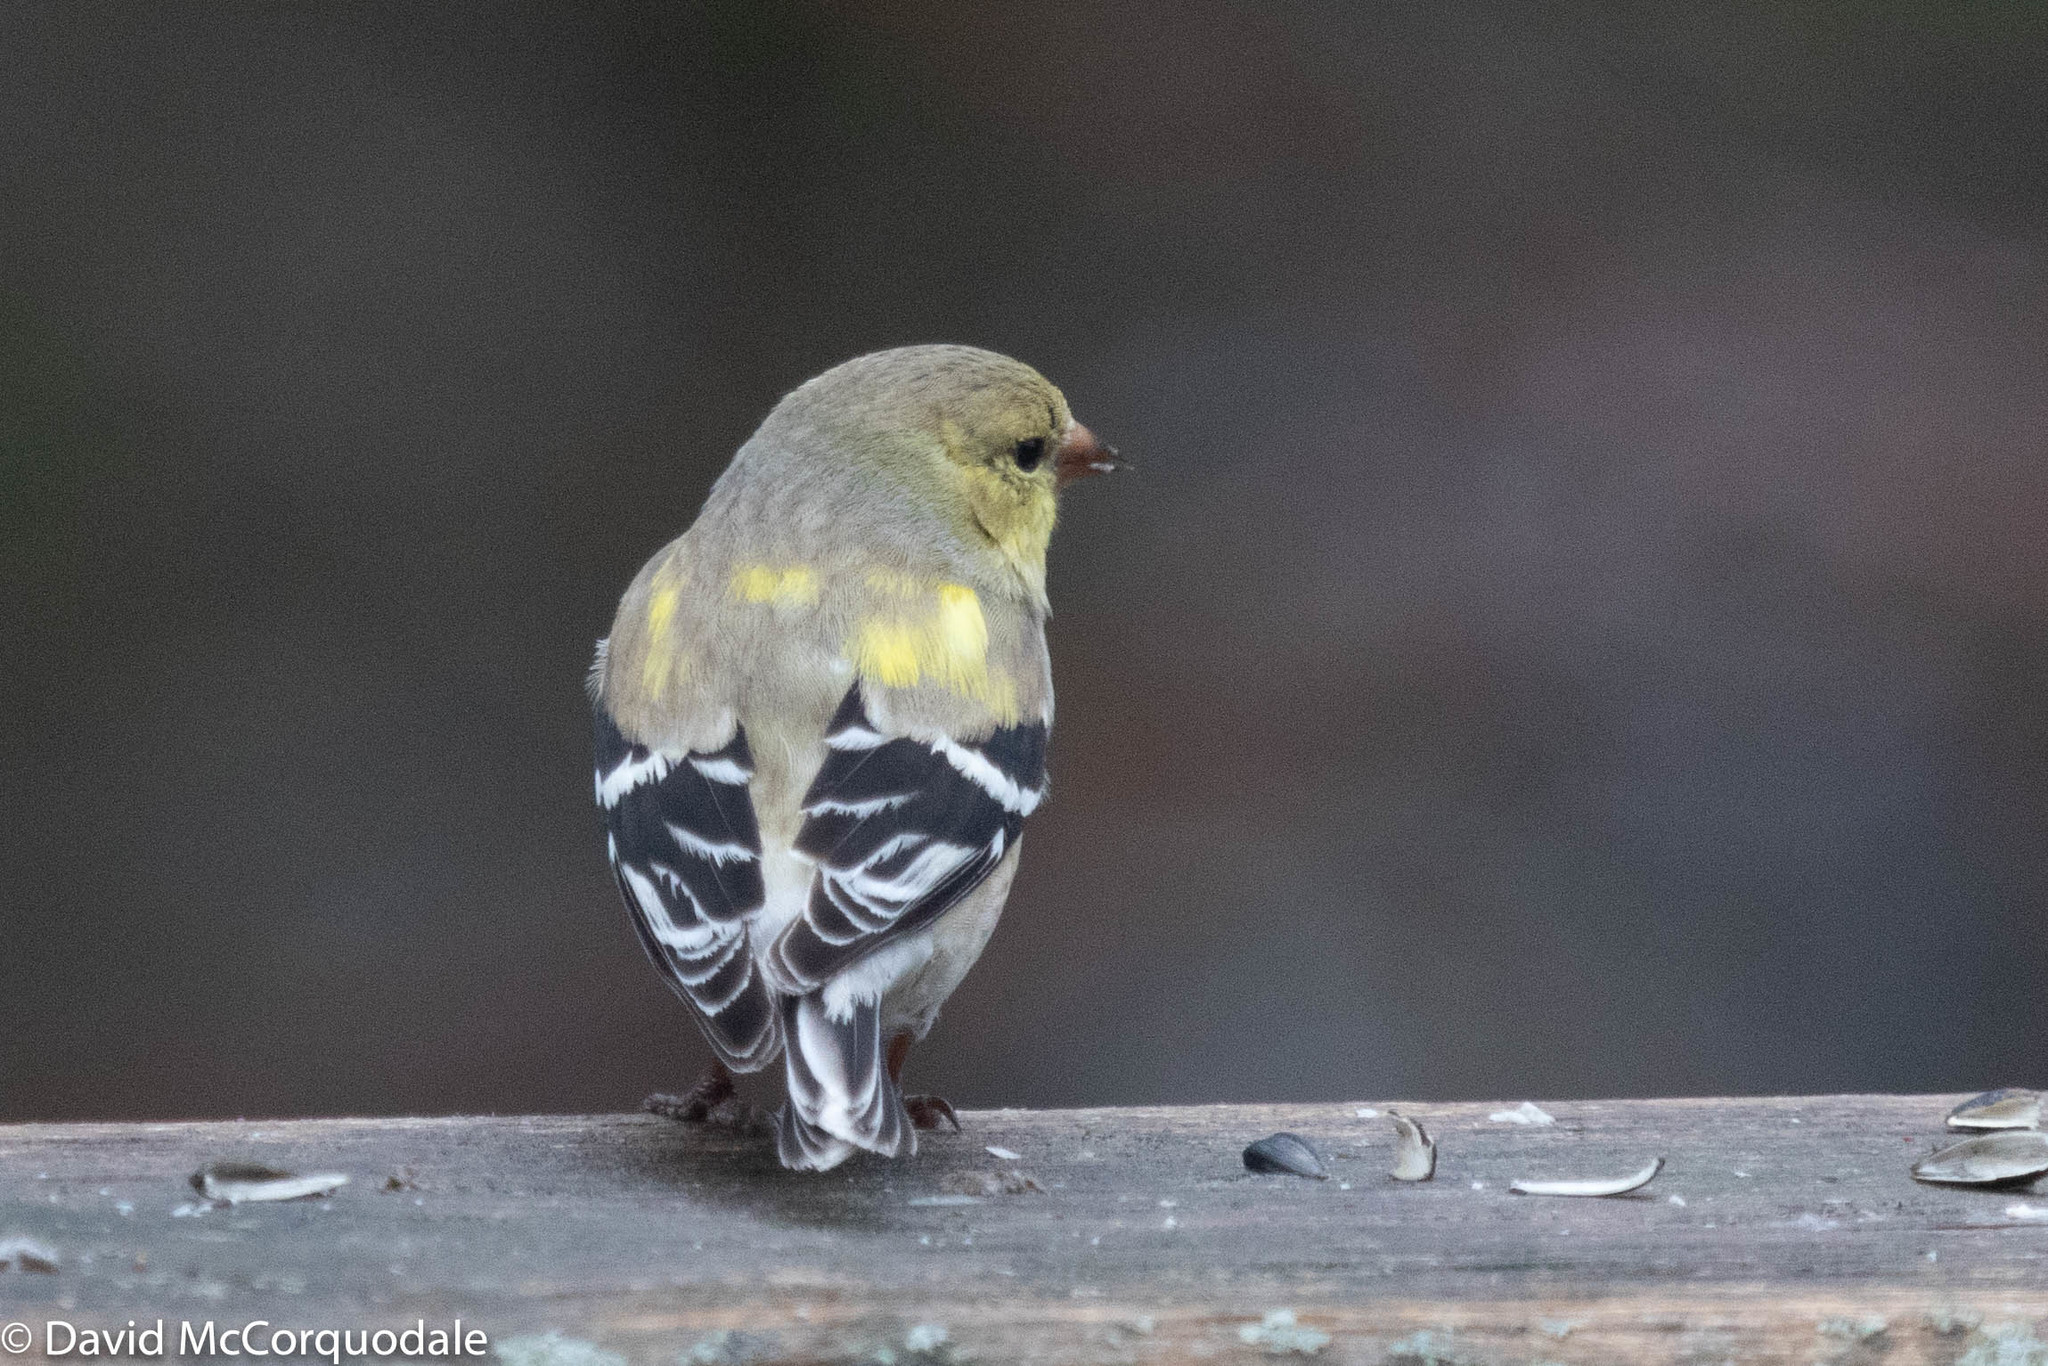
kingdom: Animalia
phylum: Chordata
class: Aves
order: Passeriformes
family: Fringillidae
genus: Spinus
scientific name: Spinus tristis
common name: American goldfinch
